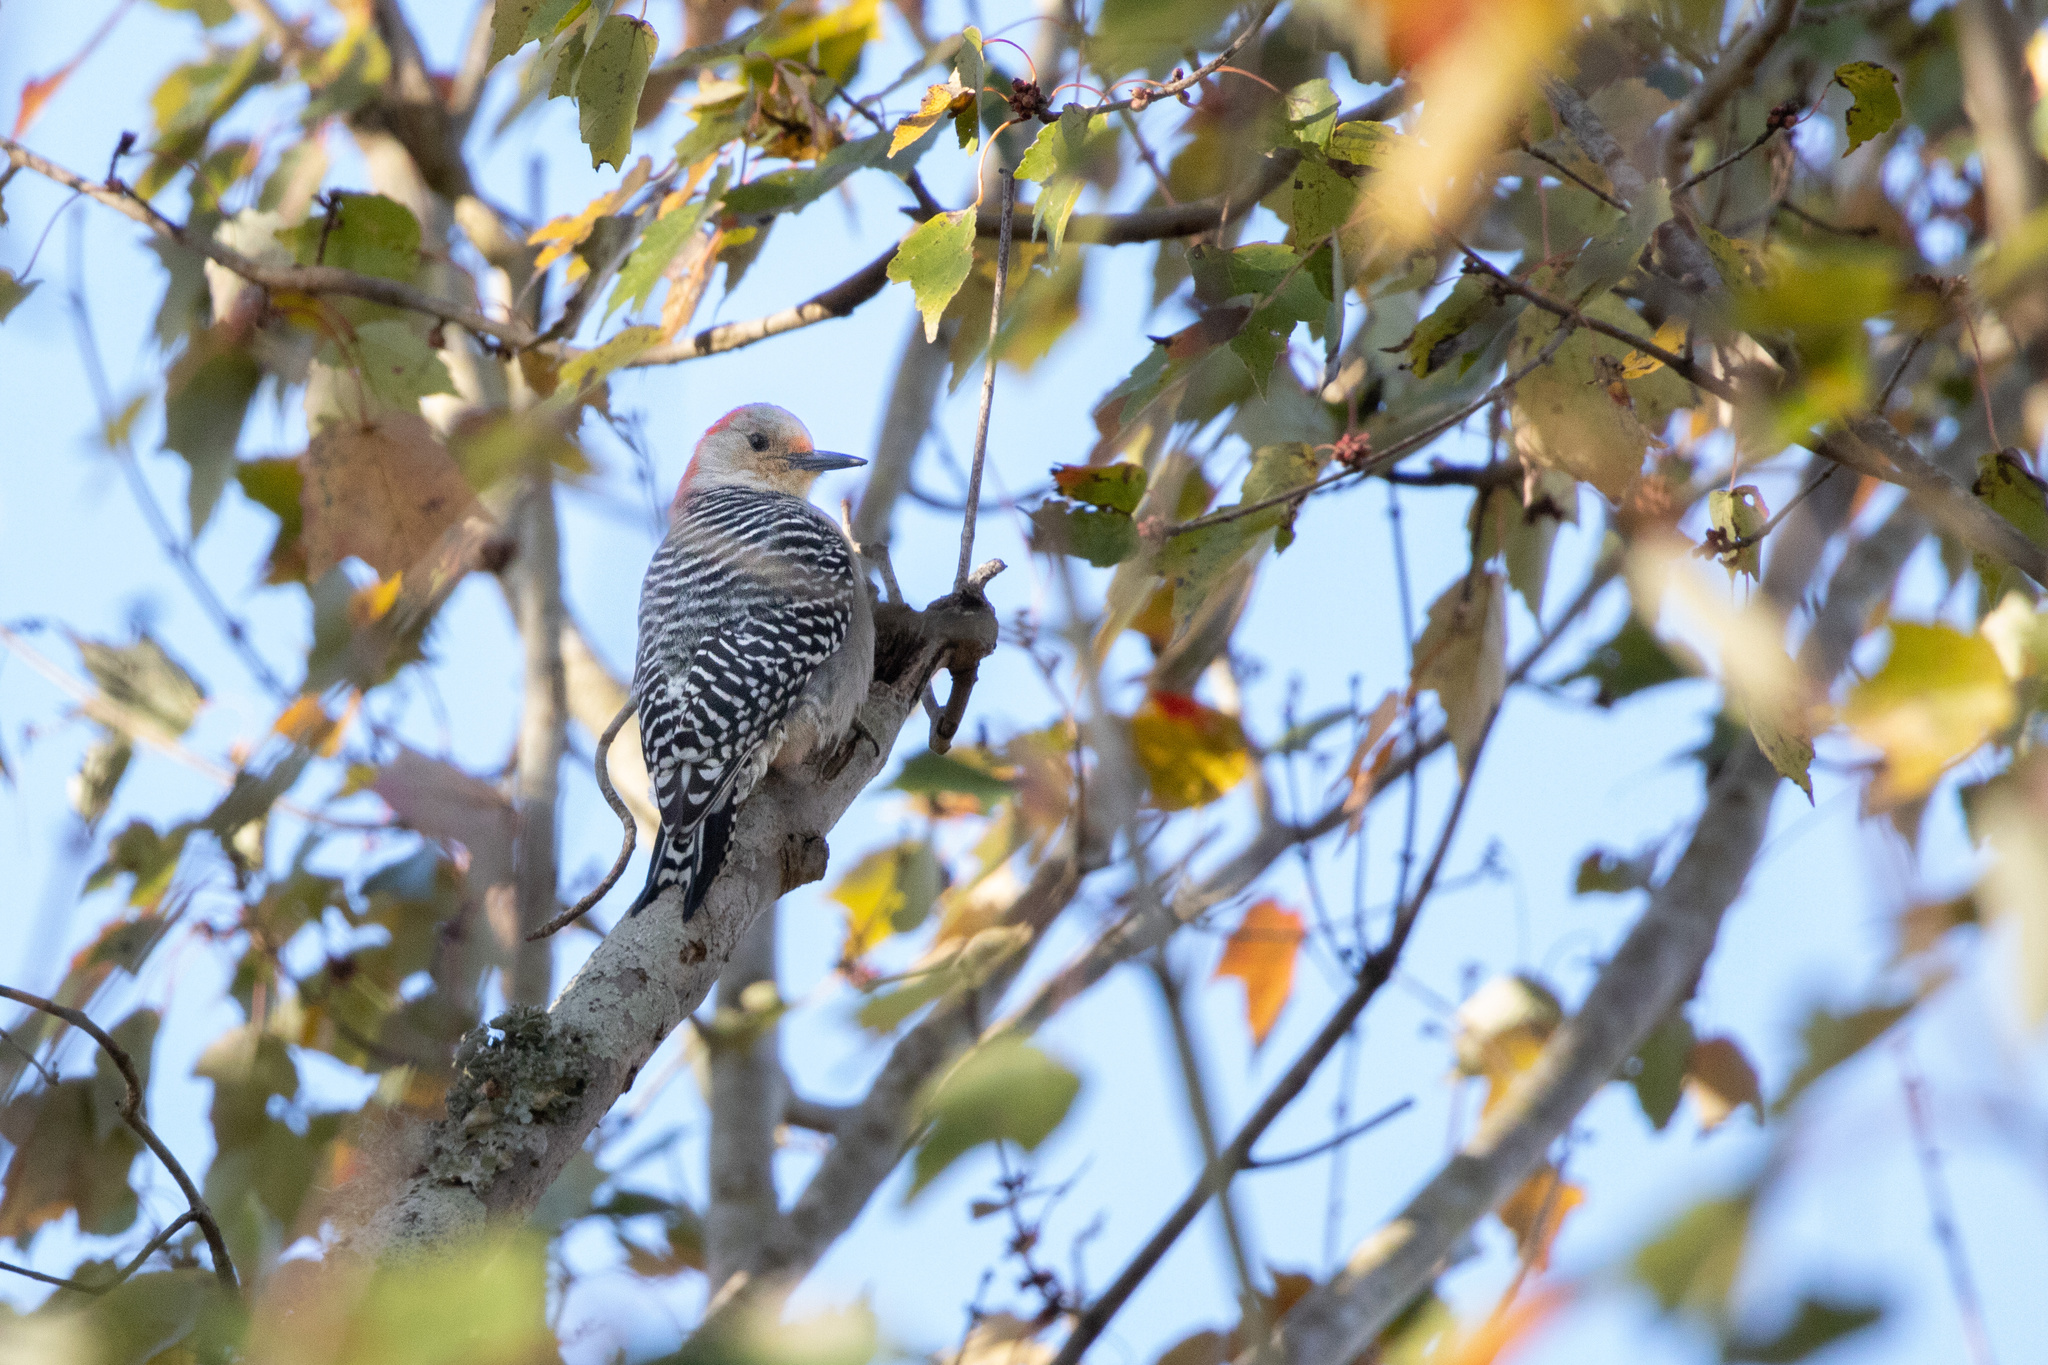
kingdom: Animalia
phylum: Chordata
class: Aves
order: Piciformes
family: Picidae
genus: Melanerpes
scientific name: Melanerpes carolinus
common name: Red-bellied woodpecker
